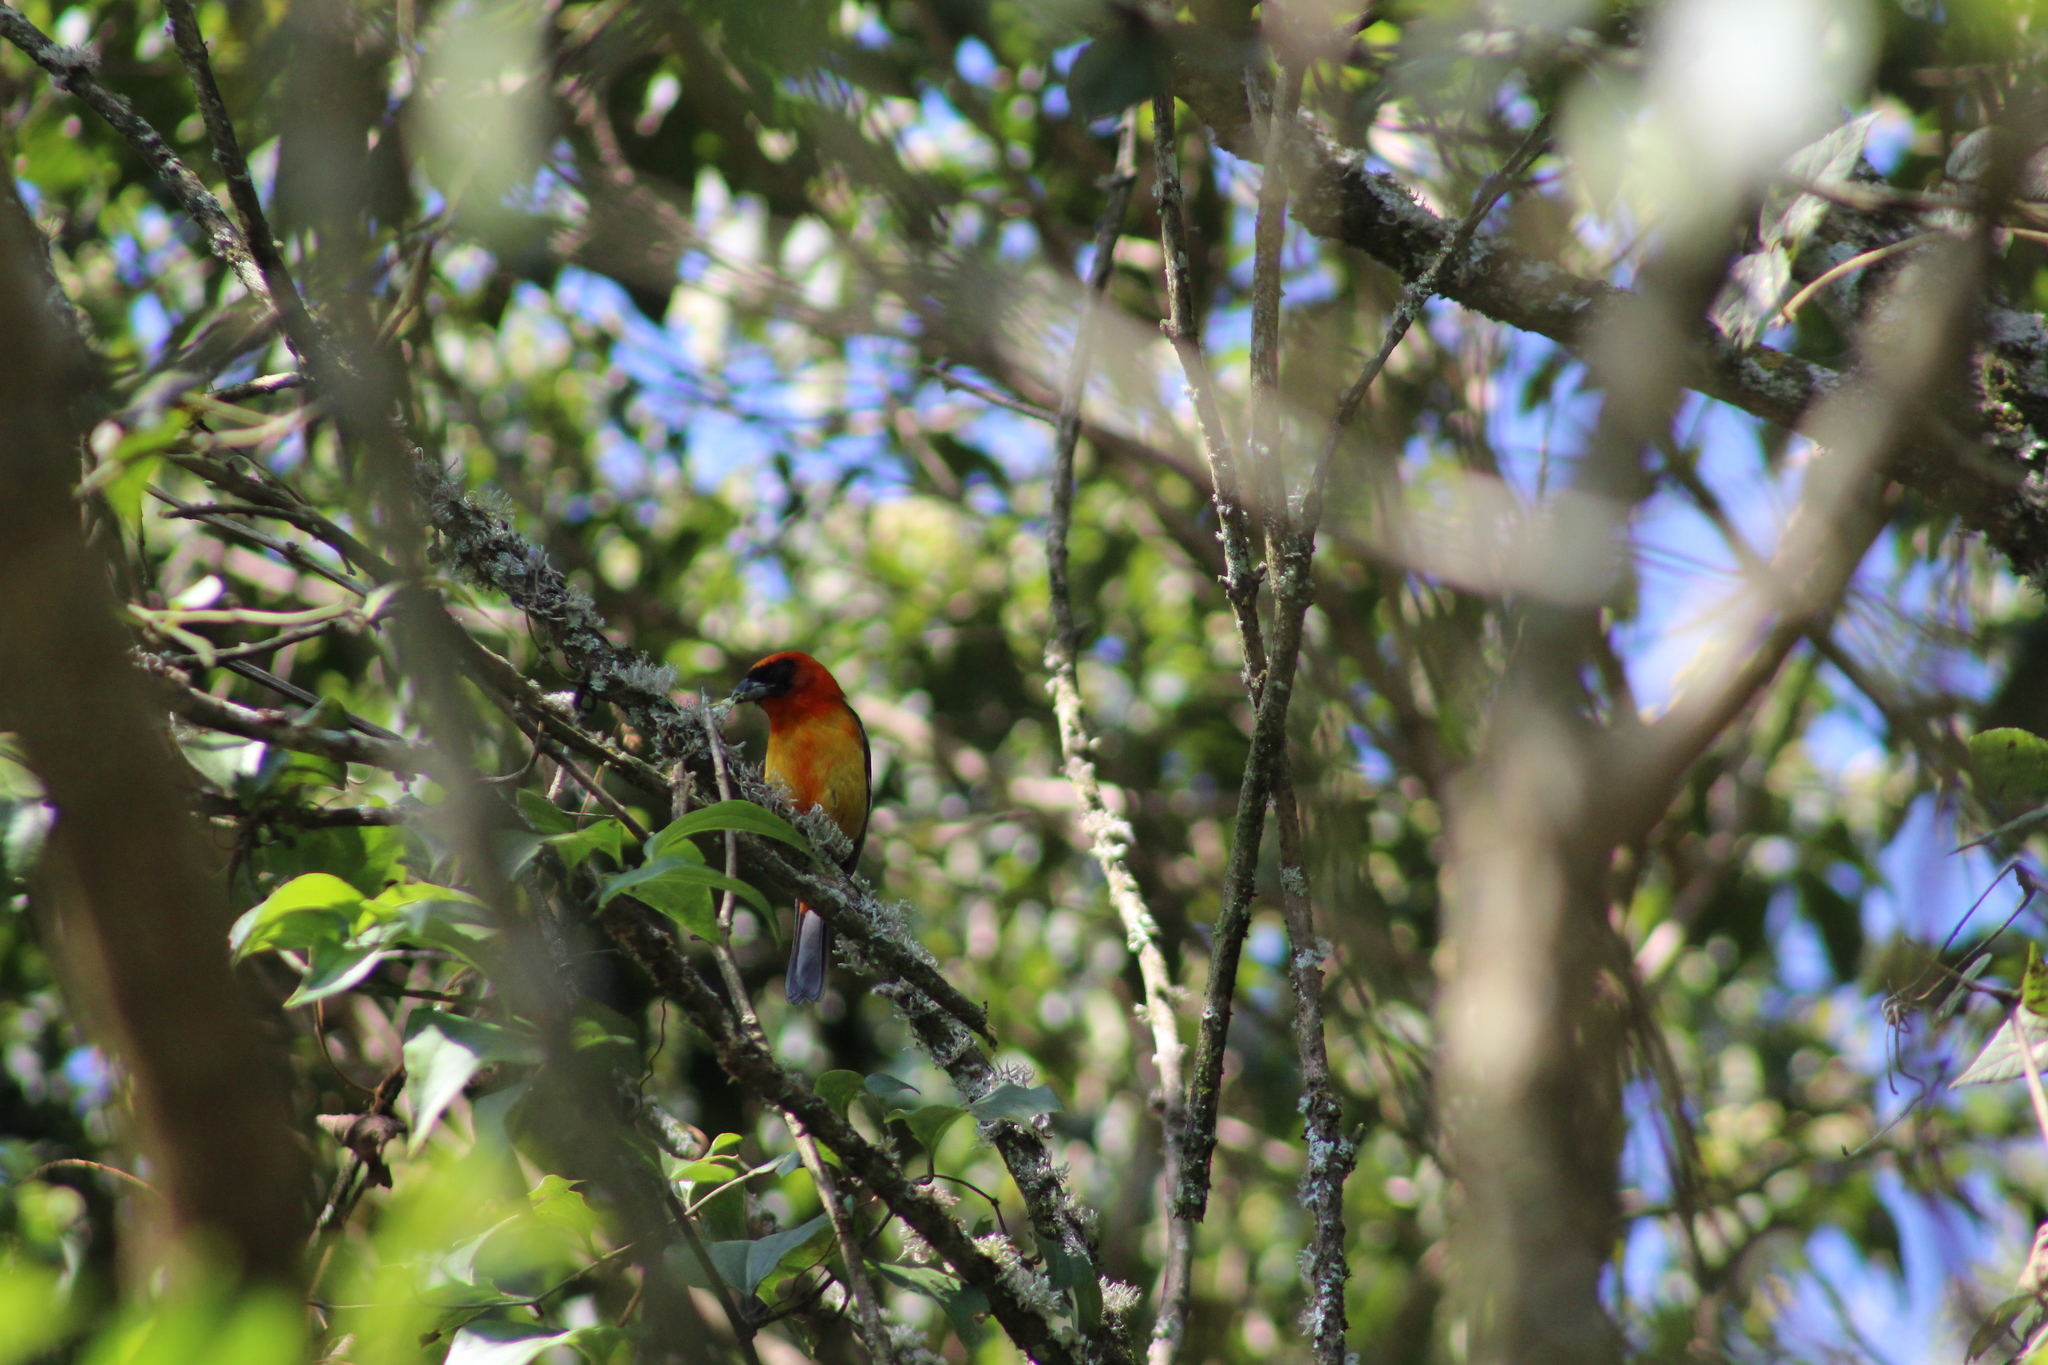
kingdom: Animalia
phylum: Chordata
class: Aves
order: Passeriformes
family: Cardinalidae
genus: Piranga
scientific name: Piranga leucoptera
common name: White-winged tanager
